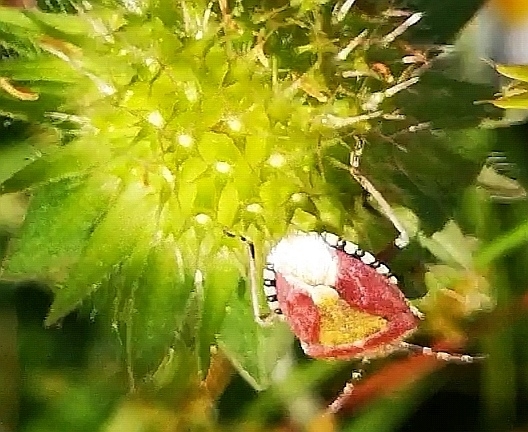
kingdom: Animalia
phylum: Arthropoda
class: Insecta
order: Hemiptera
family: Pentatomidae
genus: Dolycoris
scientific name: Dolycoris baccarum
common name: Sloe bug
